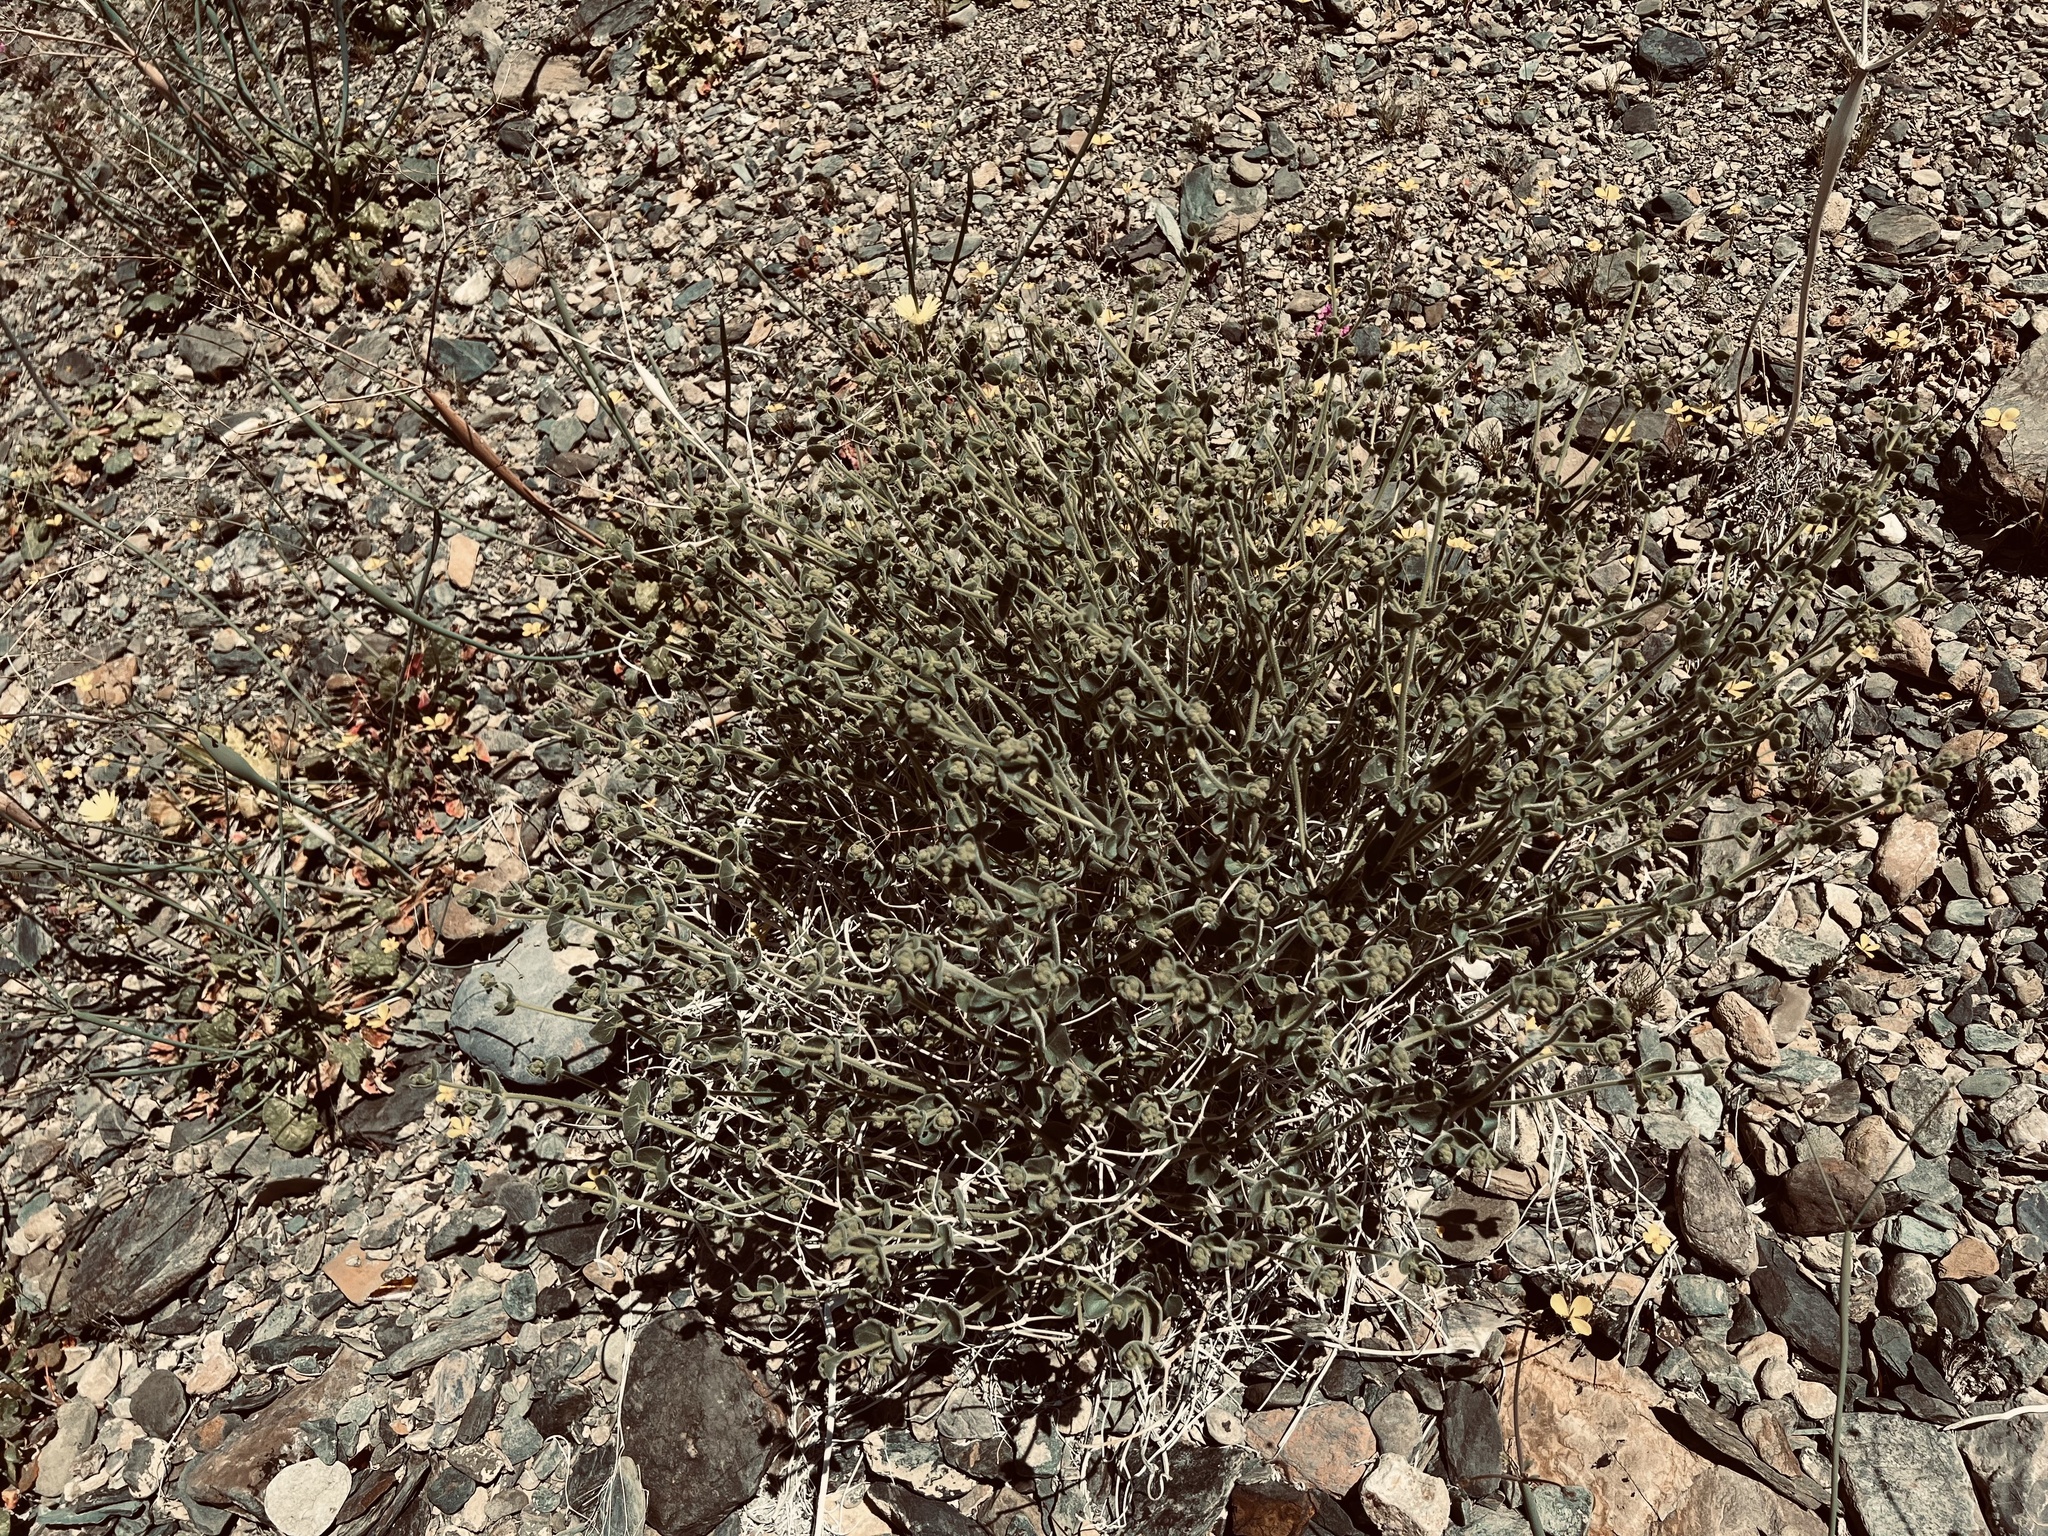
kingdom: Plantae
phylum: Tracheophyta
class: Magnoliopsida
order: Caryophyllales
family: Nyctaginaceae
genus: Mirabilis
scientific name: Mirabilis laevis
